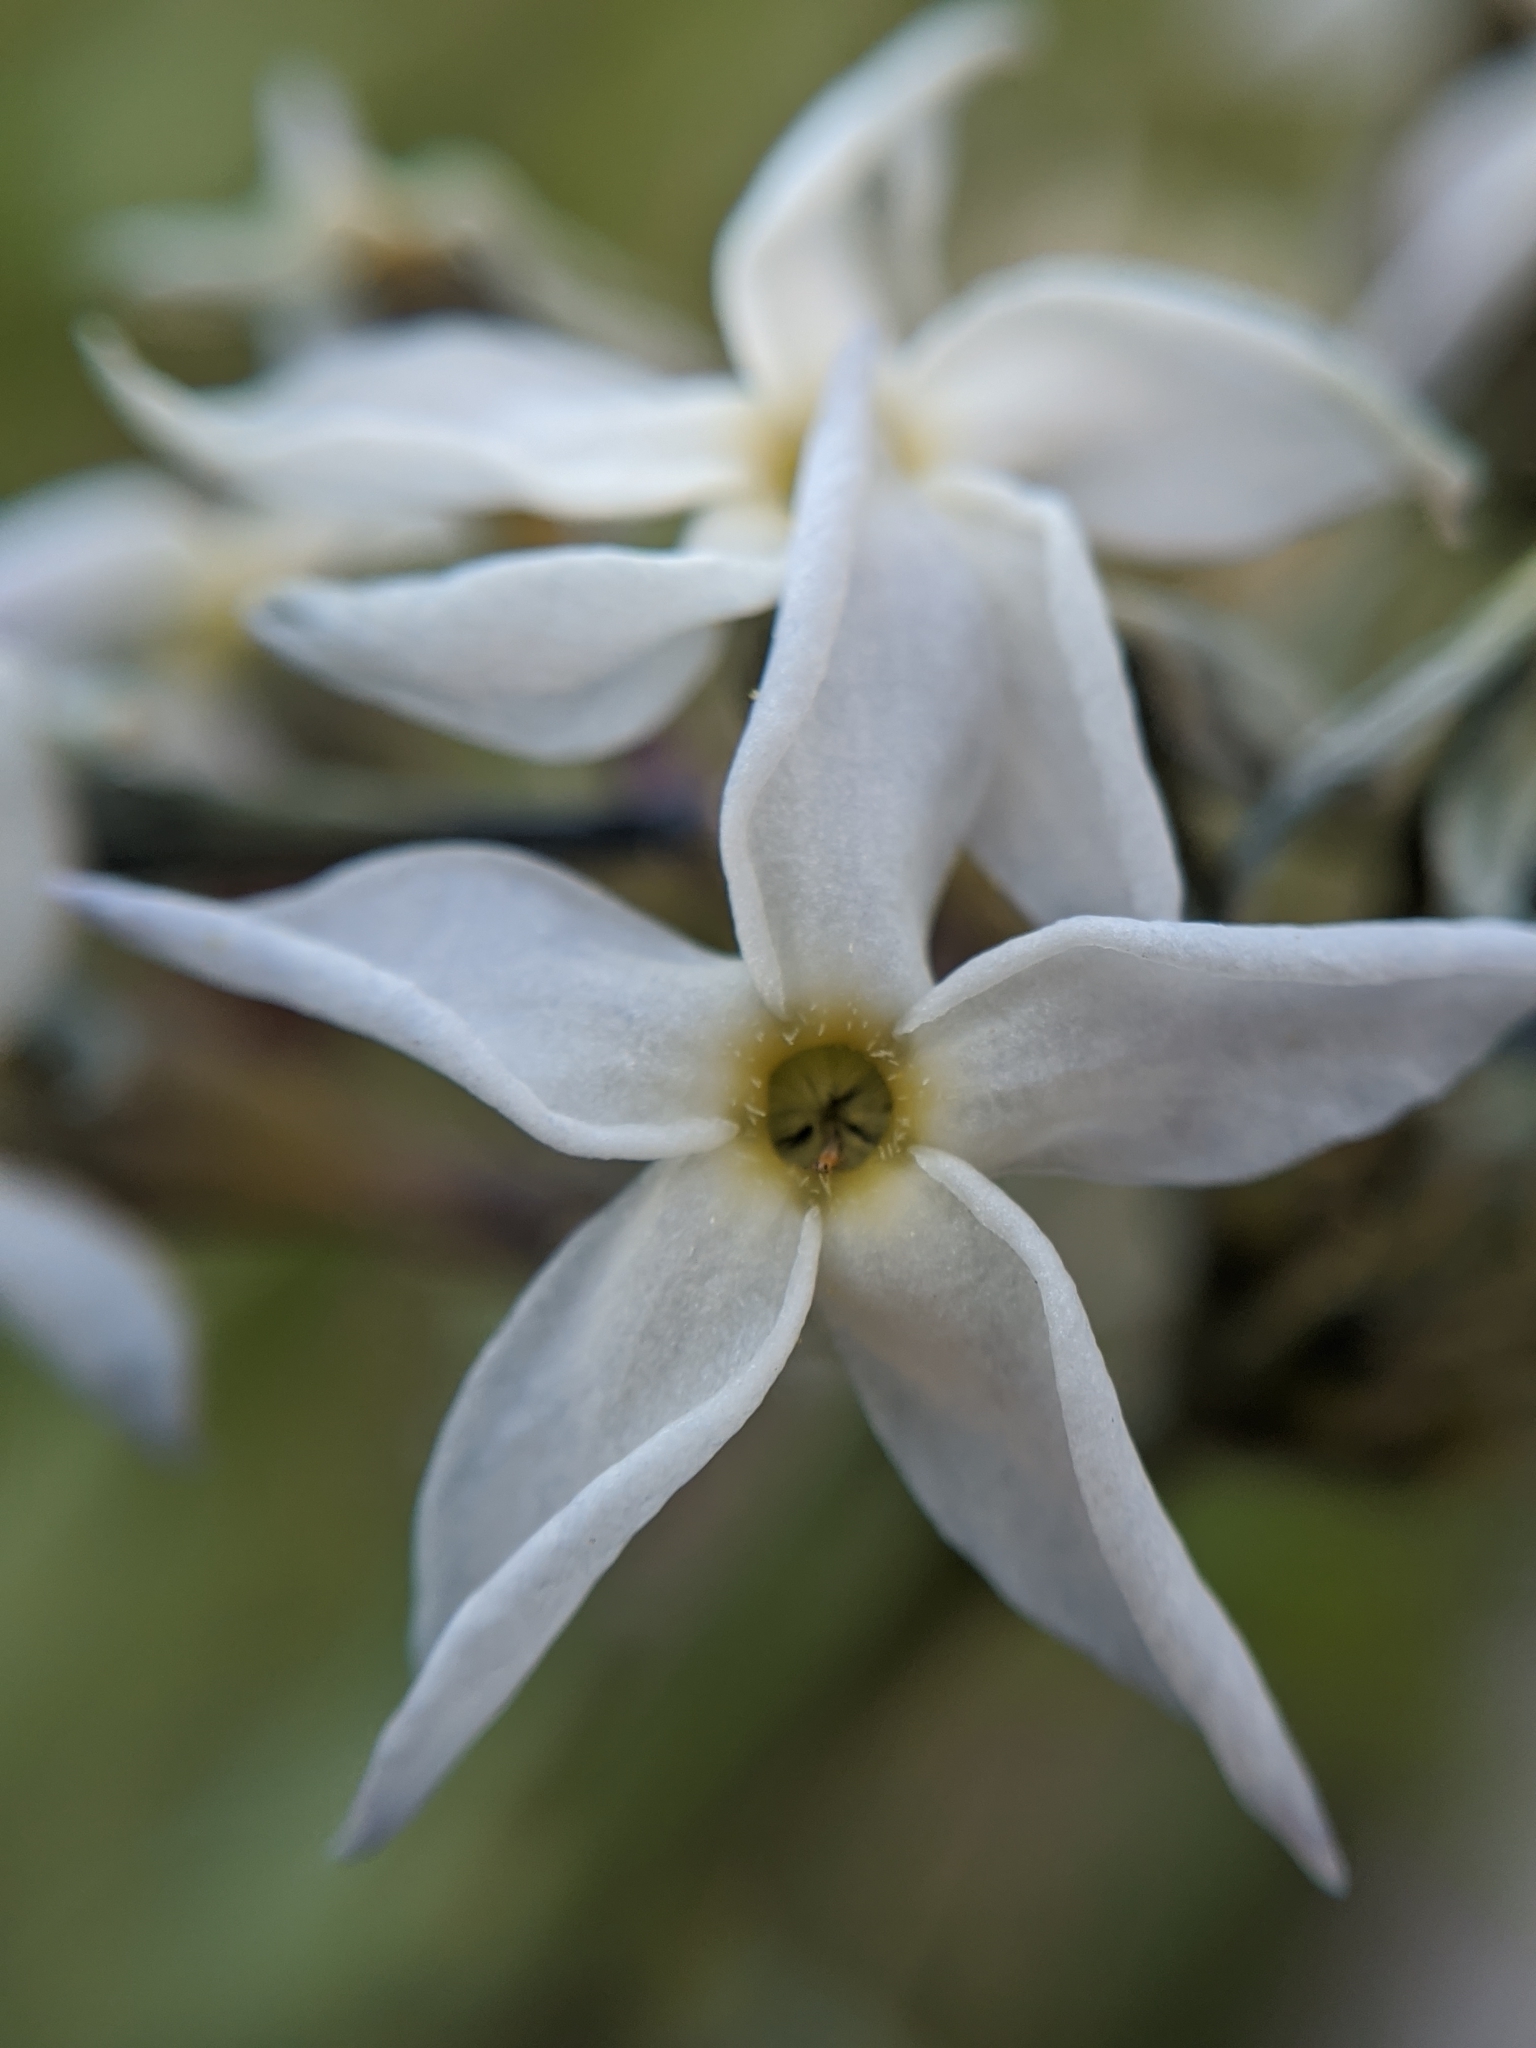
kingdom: Plantae
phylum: Tracheophyta
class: Magnoliopsida
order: Gentianales
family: Apocynaceae
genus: Amsonia
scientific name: Amsonia tomentosa
